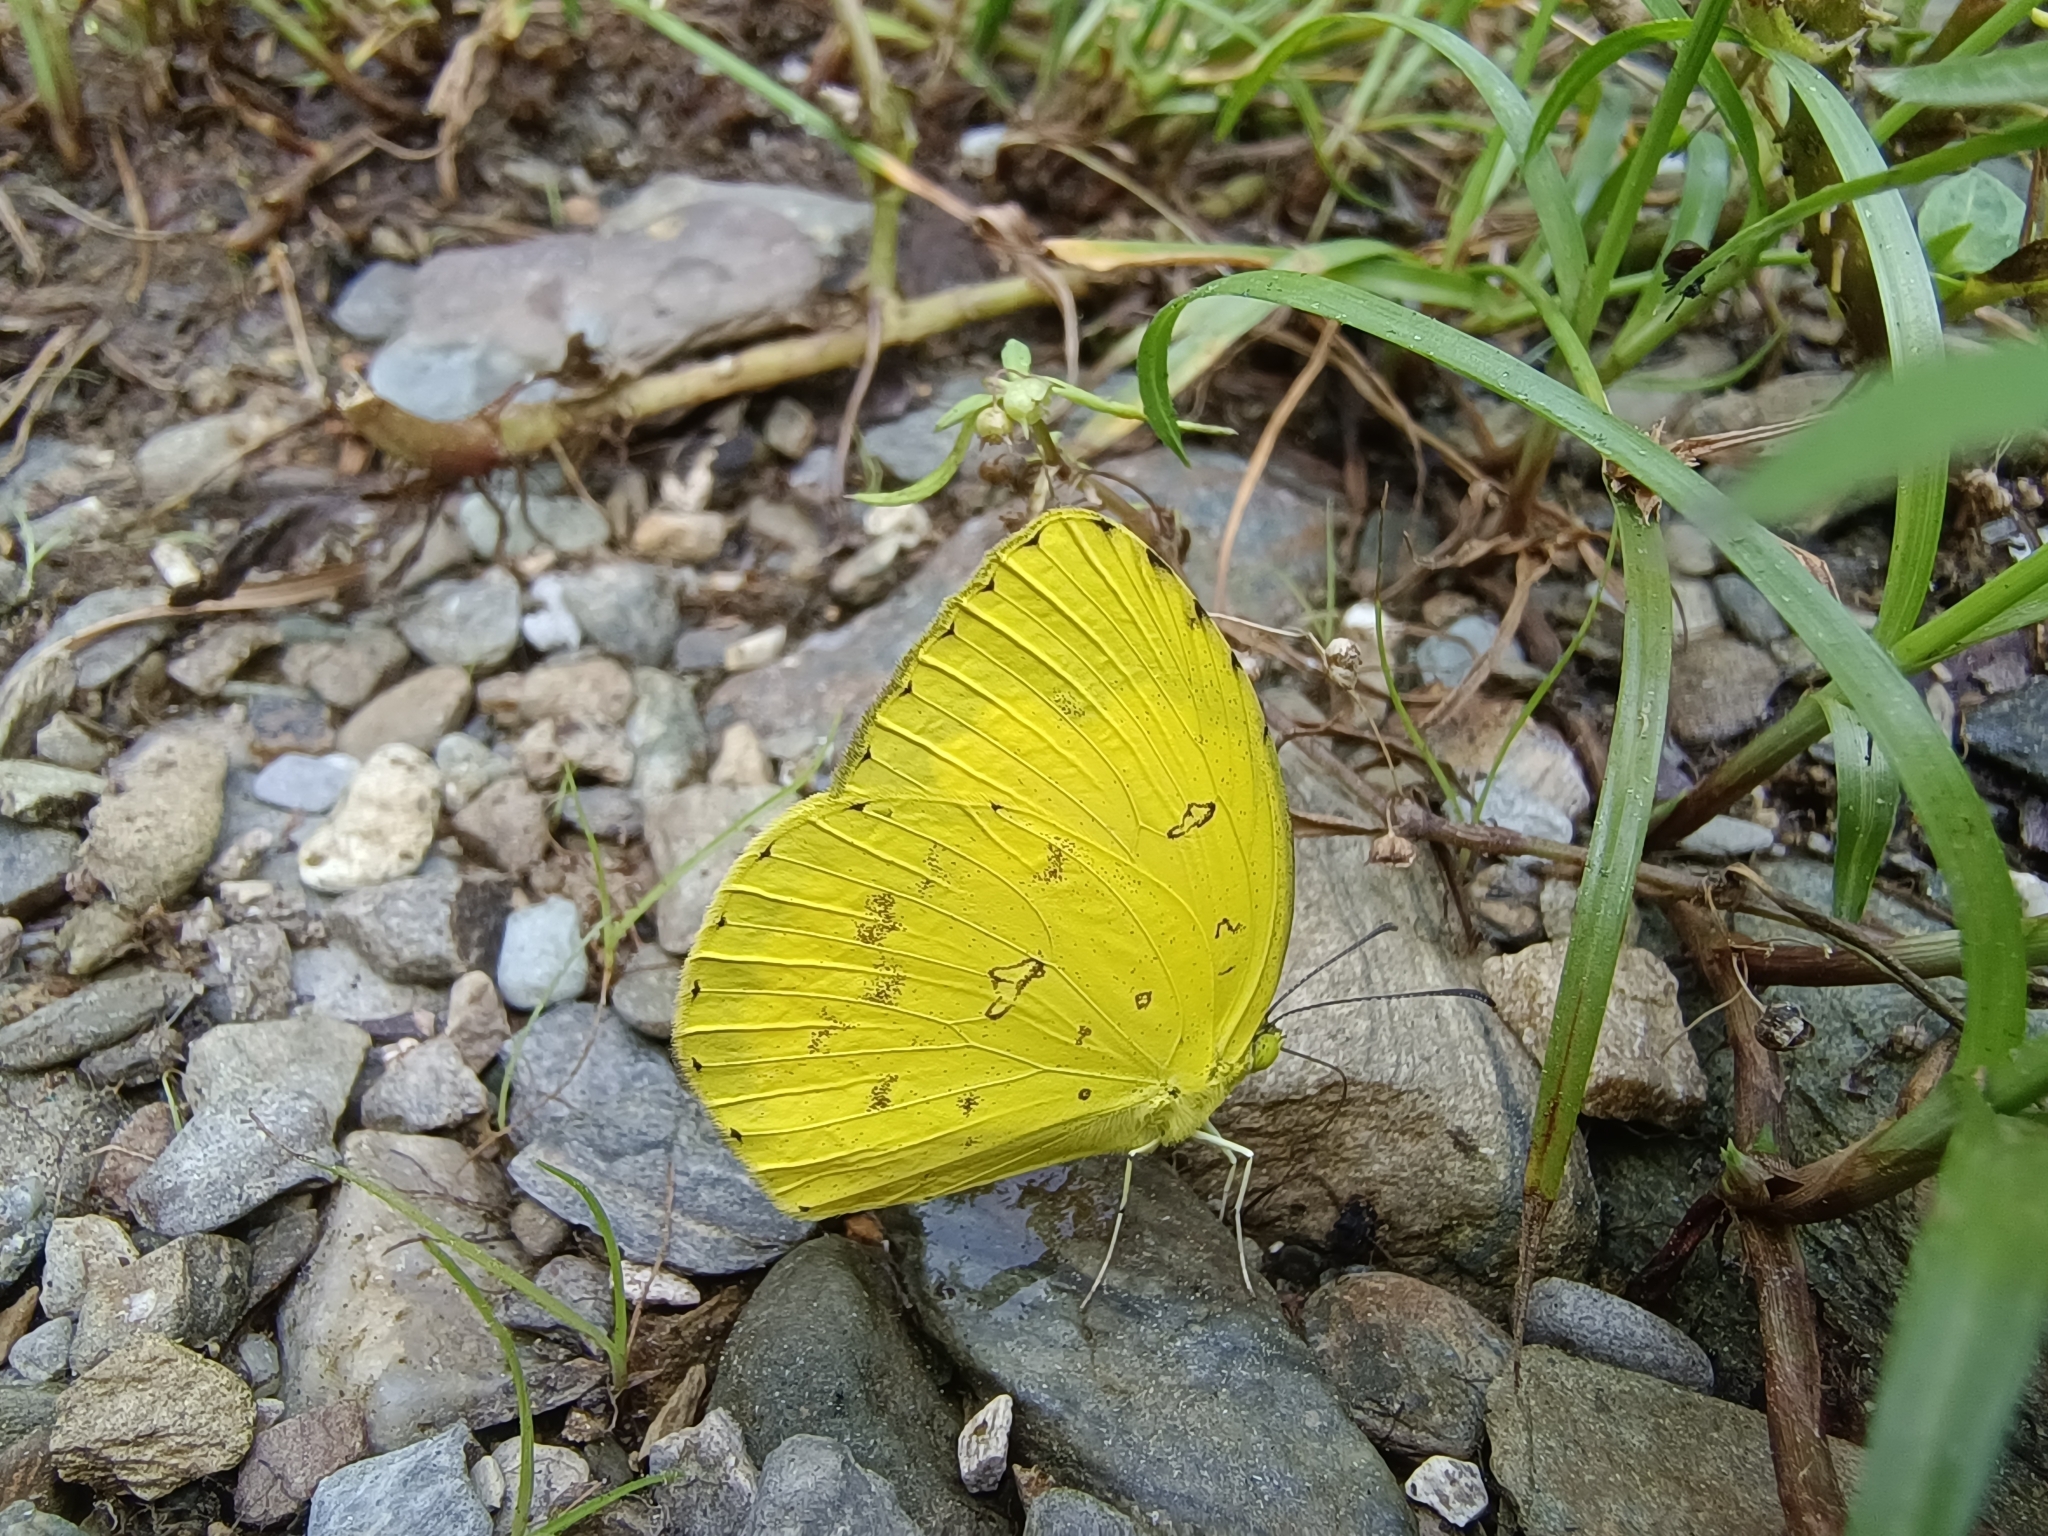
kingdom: Animalia
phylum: Arthropoda
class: Insecta
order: Lepidoptera
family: Pieridae
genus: Eurema
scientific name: Eurema hecabe
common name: Pale grass yellow
